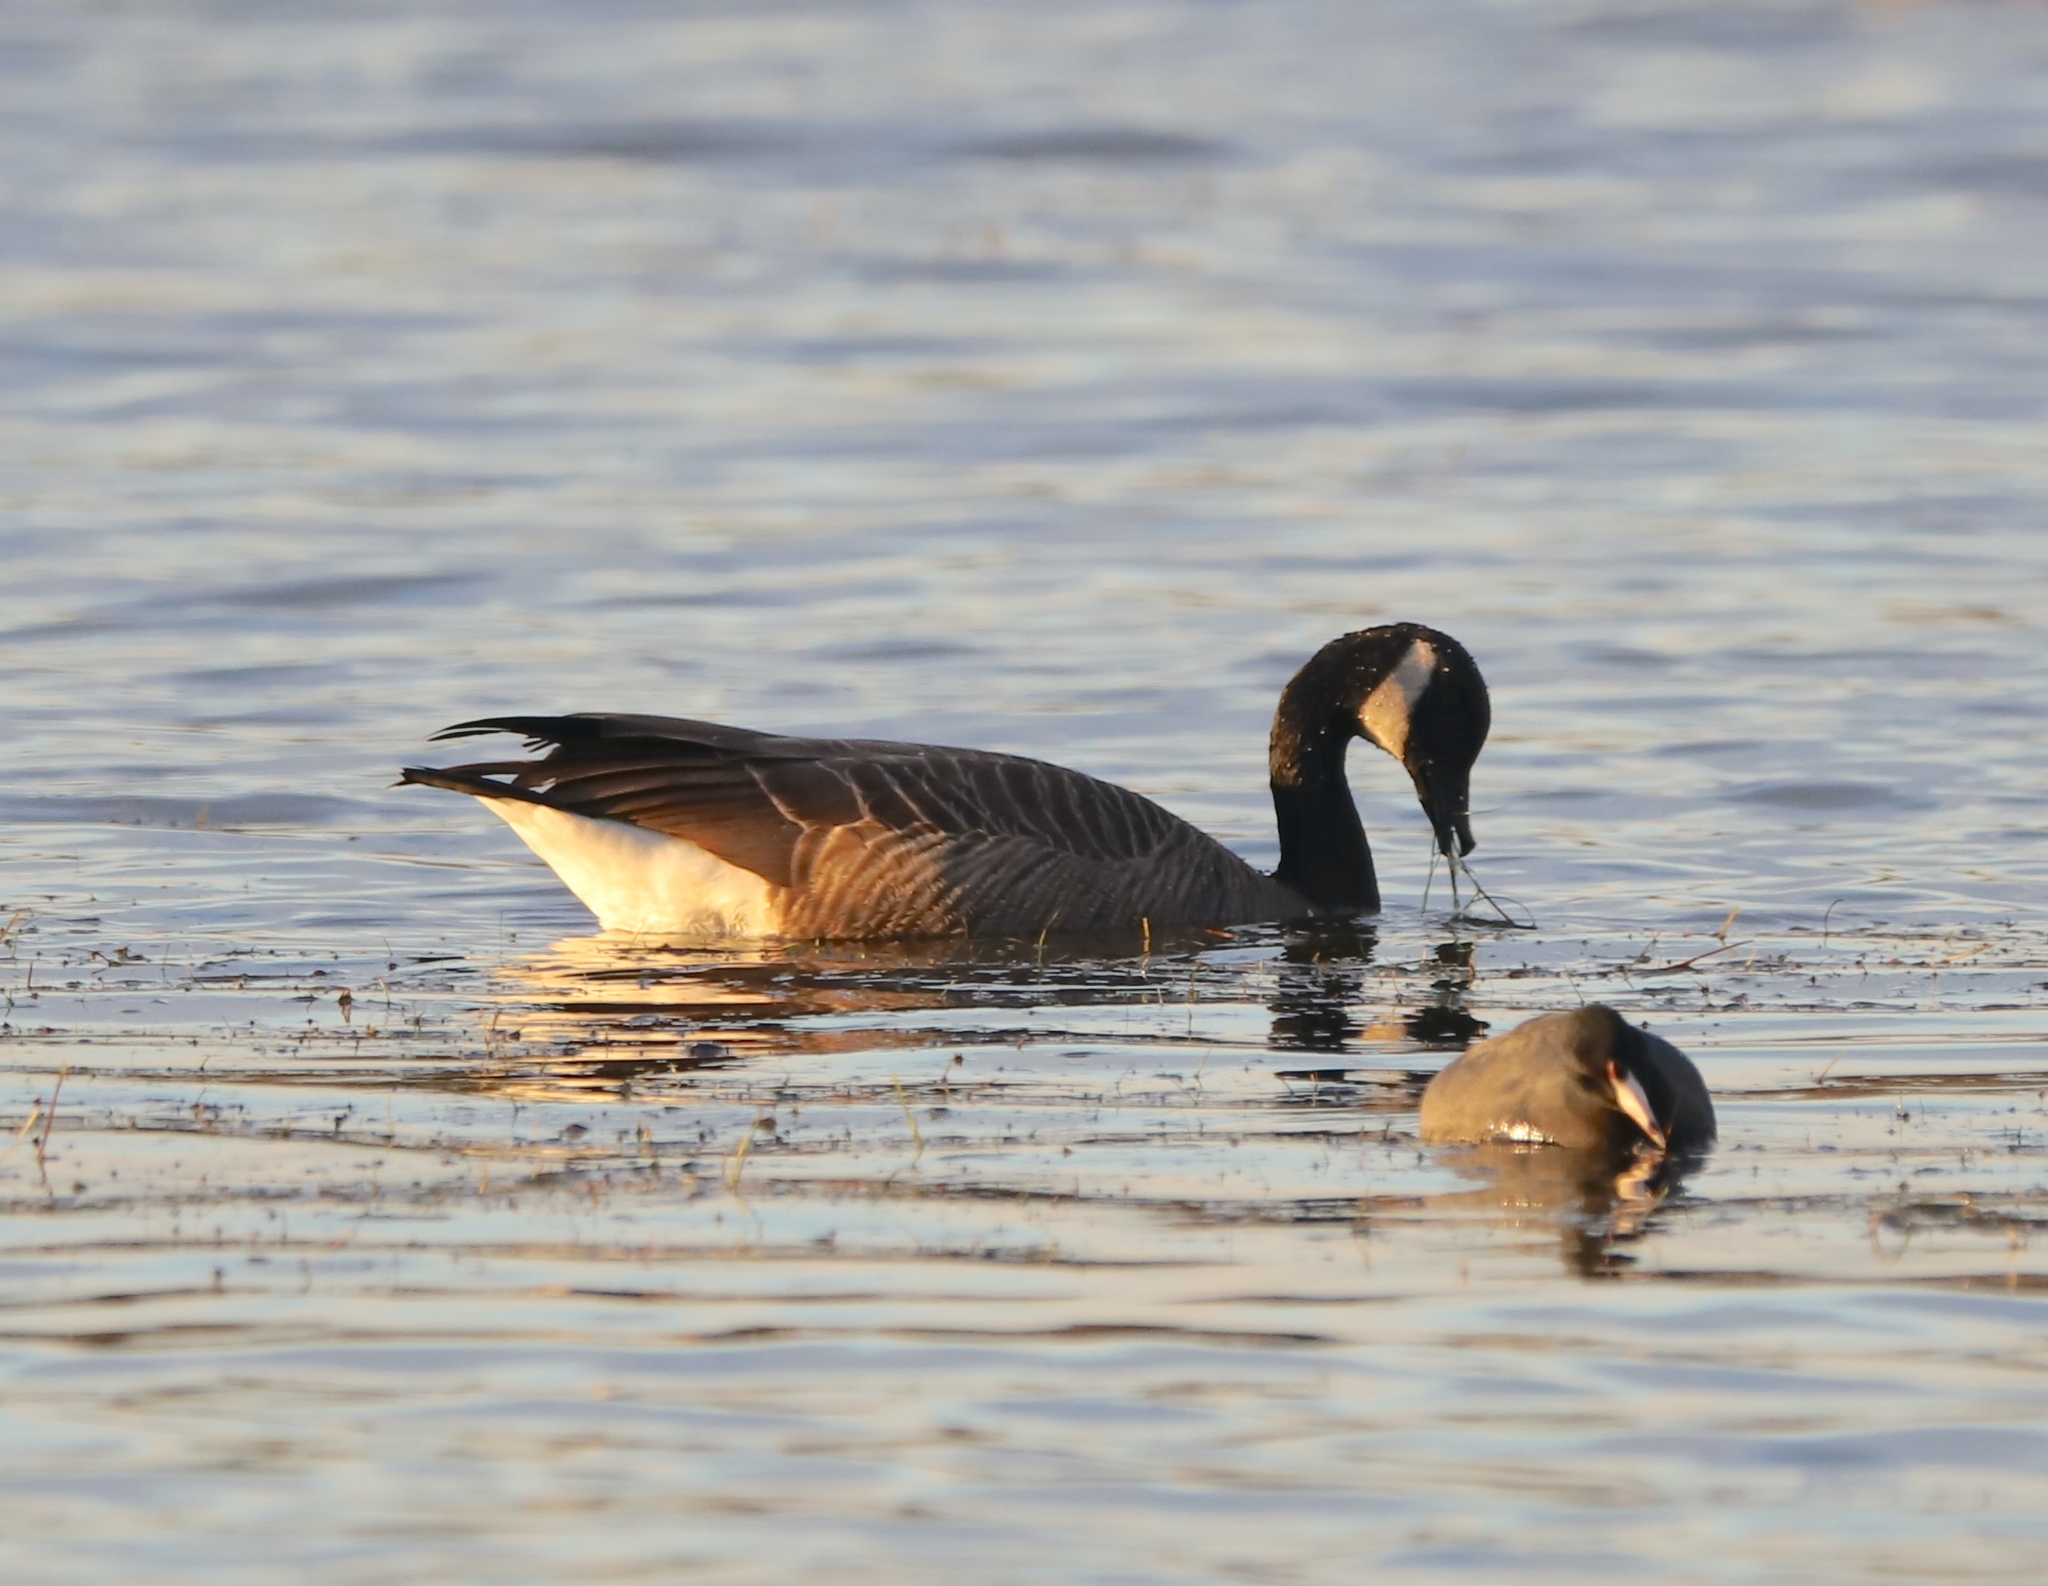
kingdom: Animalia
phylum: Chordata
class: Aves
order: Anseriformes
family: Anatidae
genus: Branta
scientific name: Branta canadensis
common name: Canada goose
